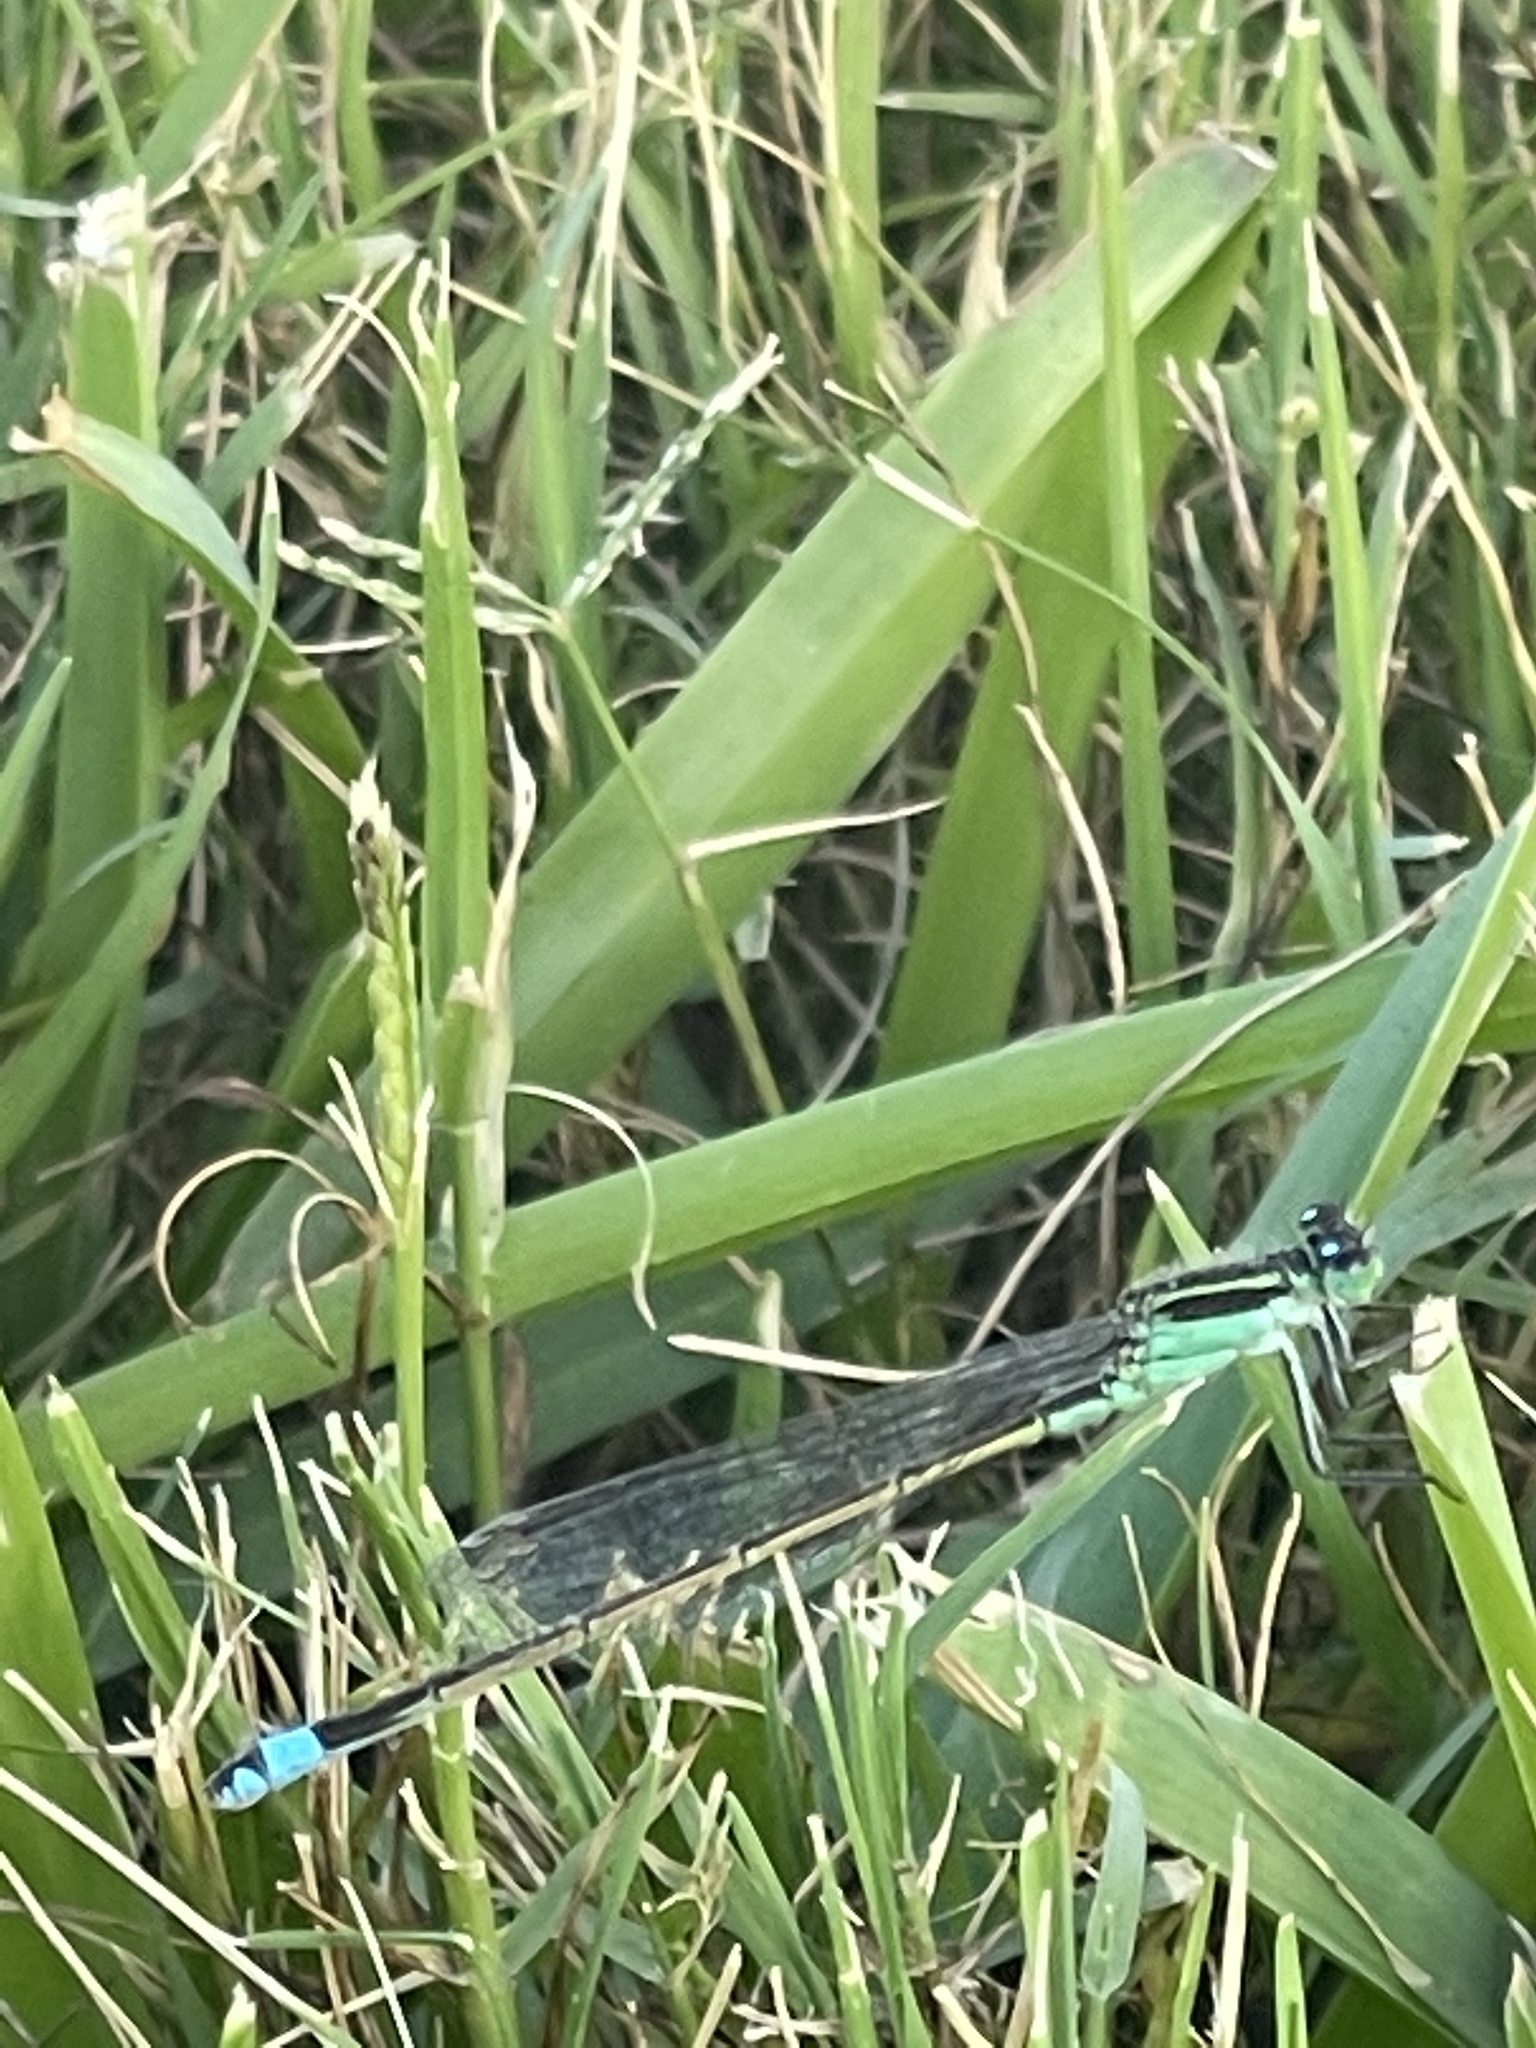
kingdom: Animalia
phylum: Arthropoda
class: Insecta
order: Odonata
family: Coenagrionidae
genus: Ischnura
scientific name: Ischnura ramburii
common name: Rambur's forktail
